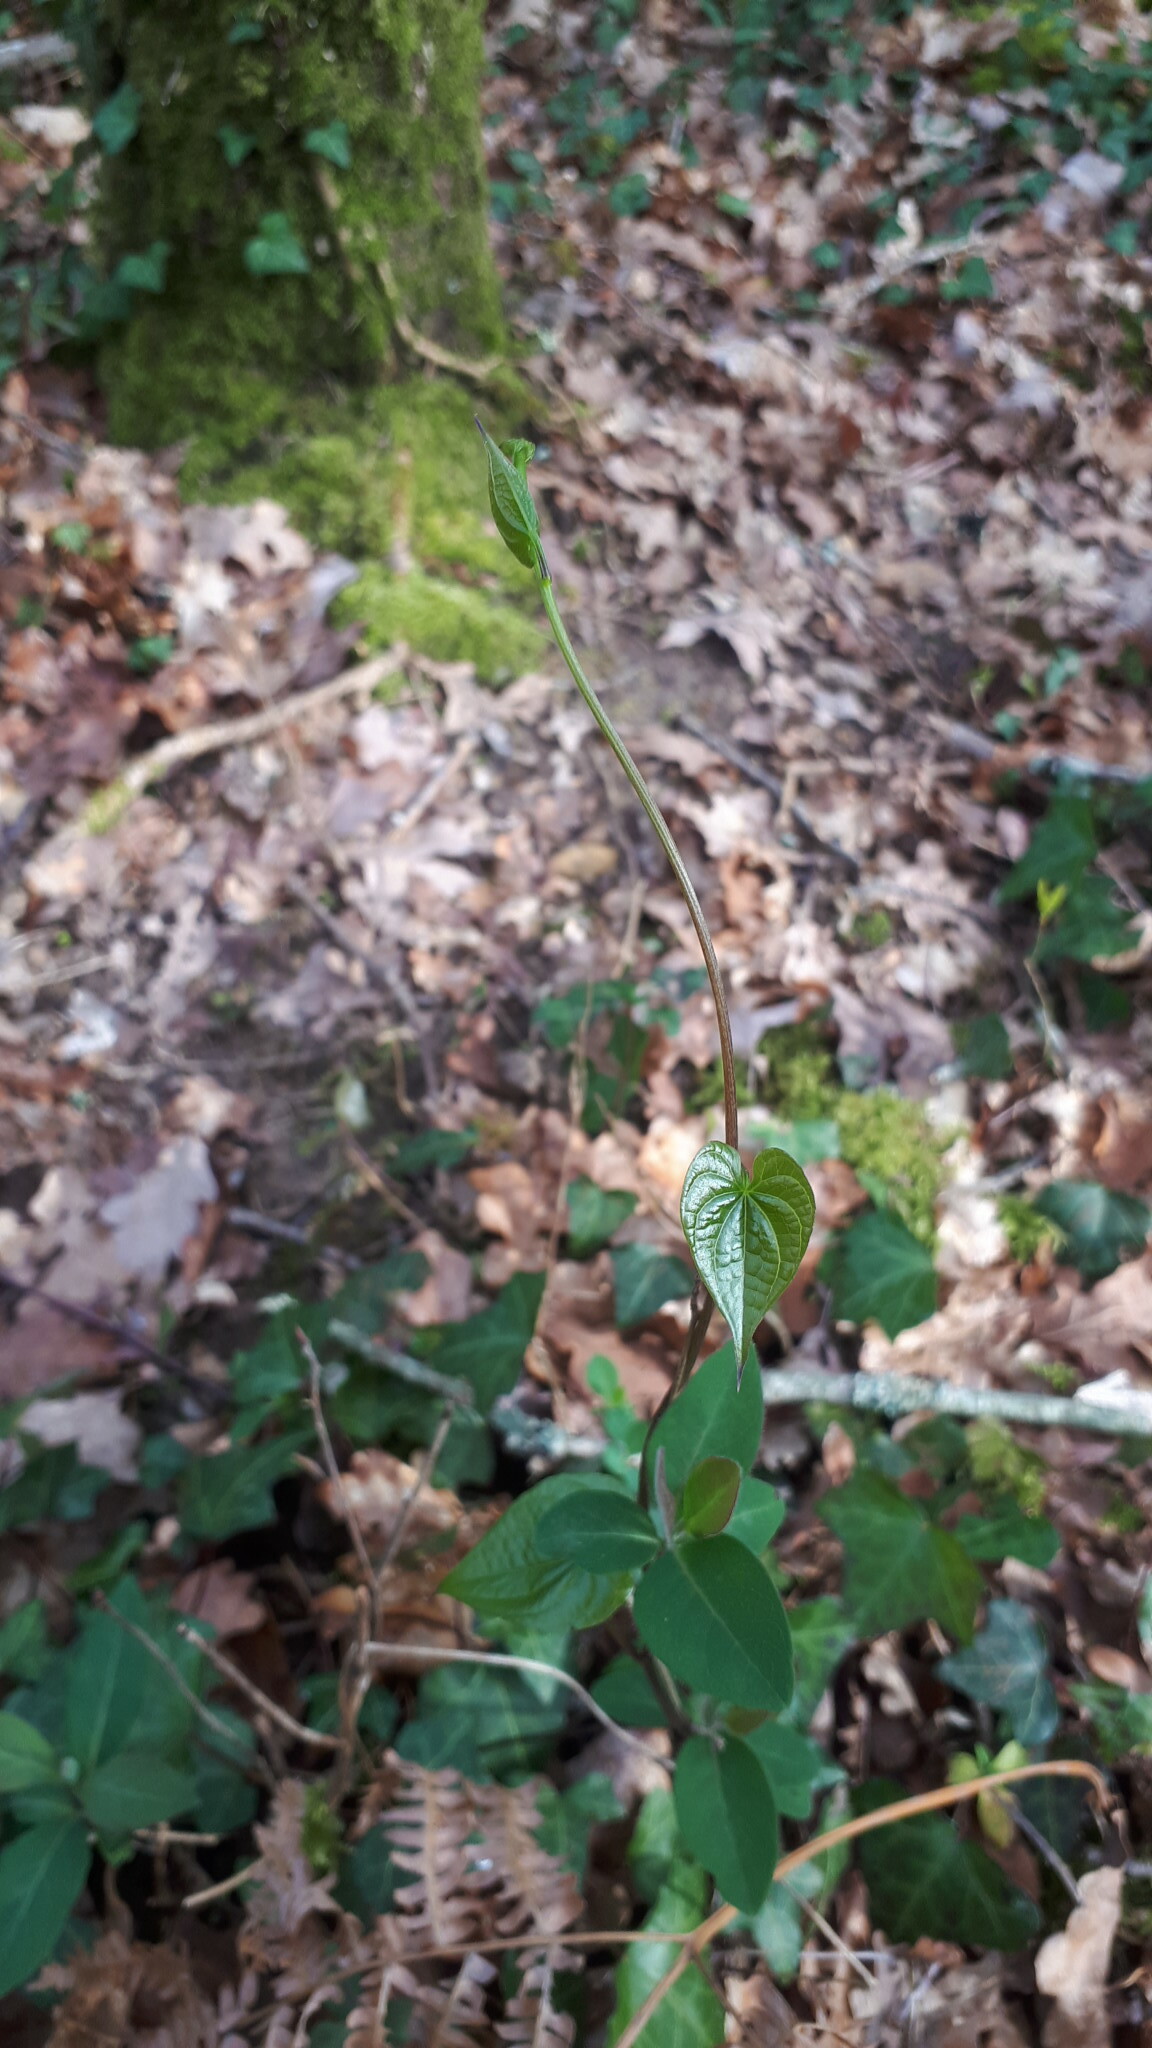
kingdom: Plantae
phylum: Tracheophyta
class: Liliopsida
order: Dioscoreales
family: Dioscoreaceae
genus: Dioscorea
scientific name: Dioscorea communis
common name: Black-bindweed
